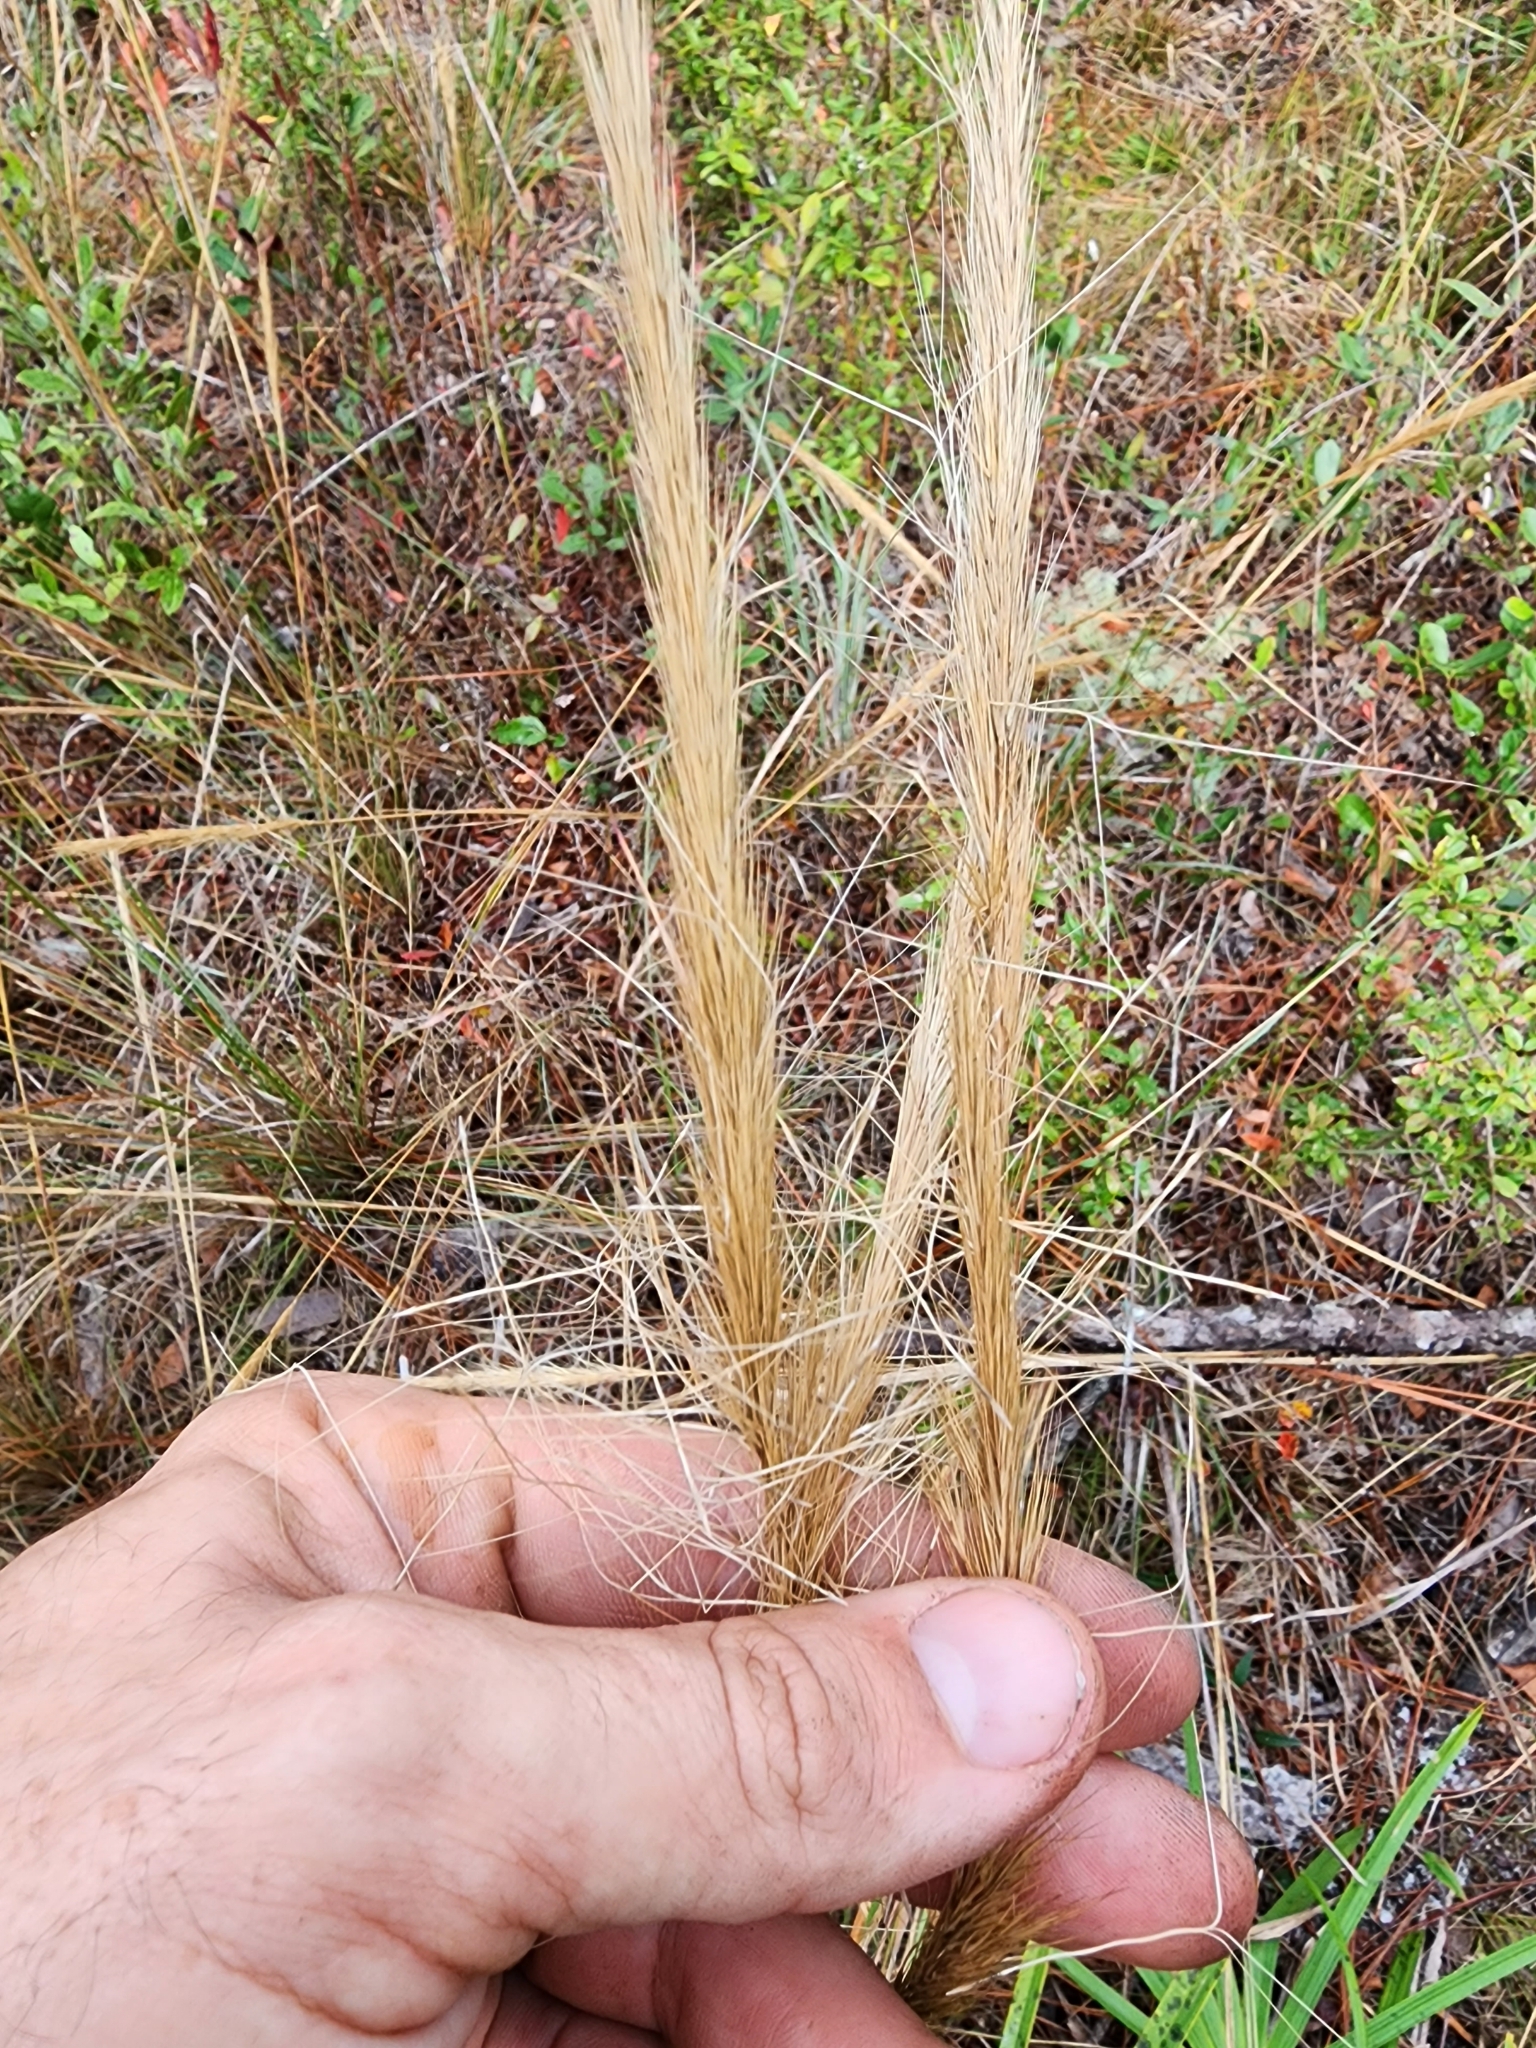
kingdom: Plantae
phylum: Tracheophyta
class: Liliopsida
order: Poales
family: Poaceae
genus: Aristida
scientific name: Aristida spiciformis
